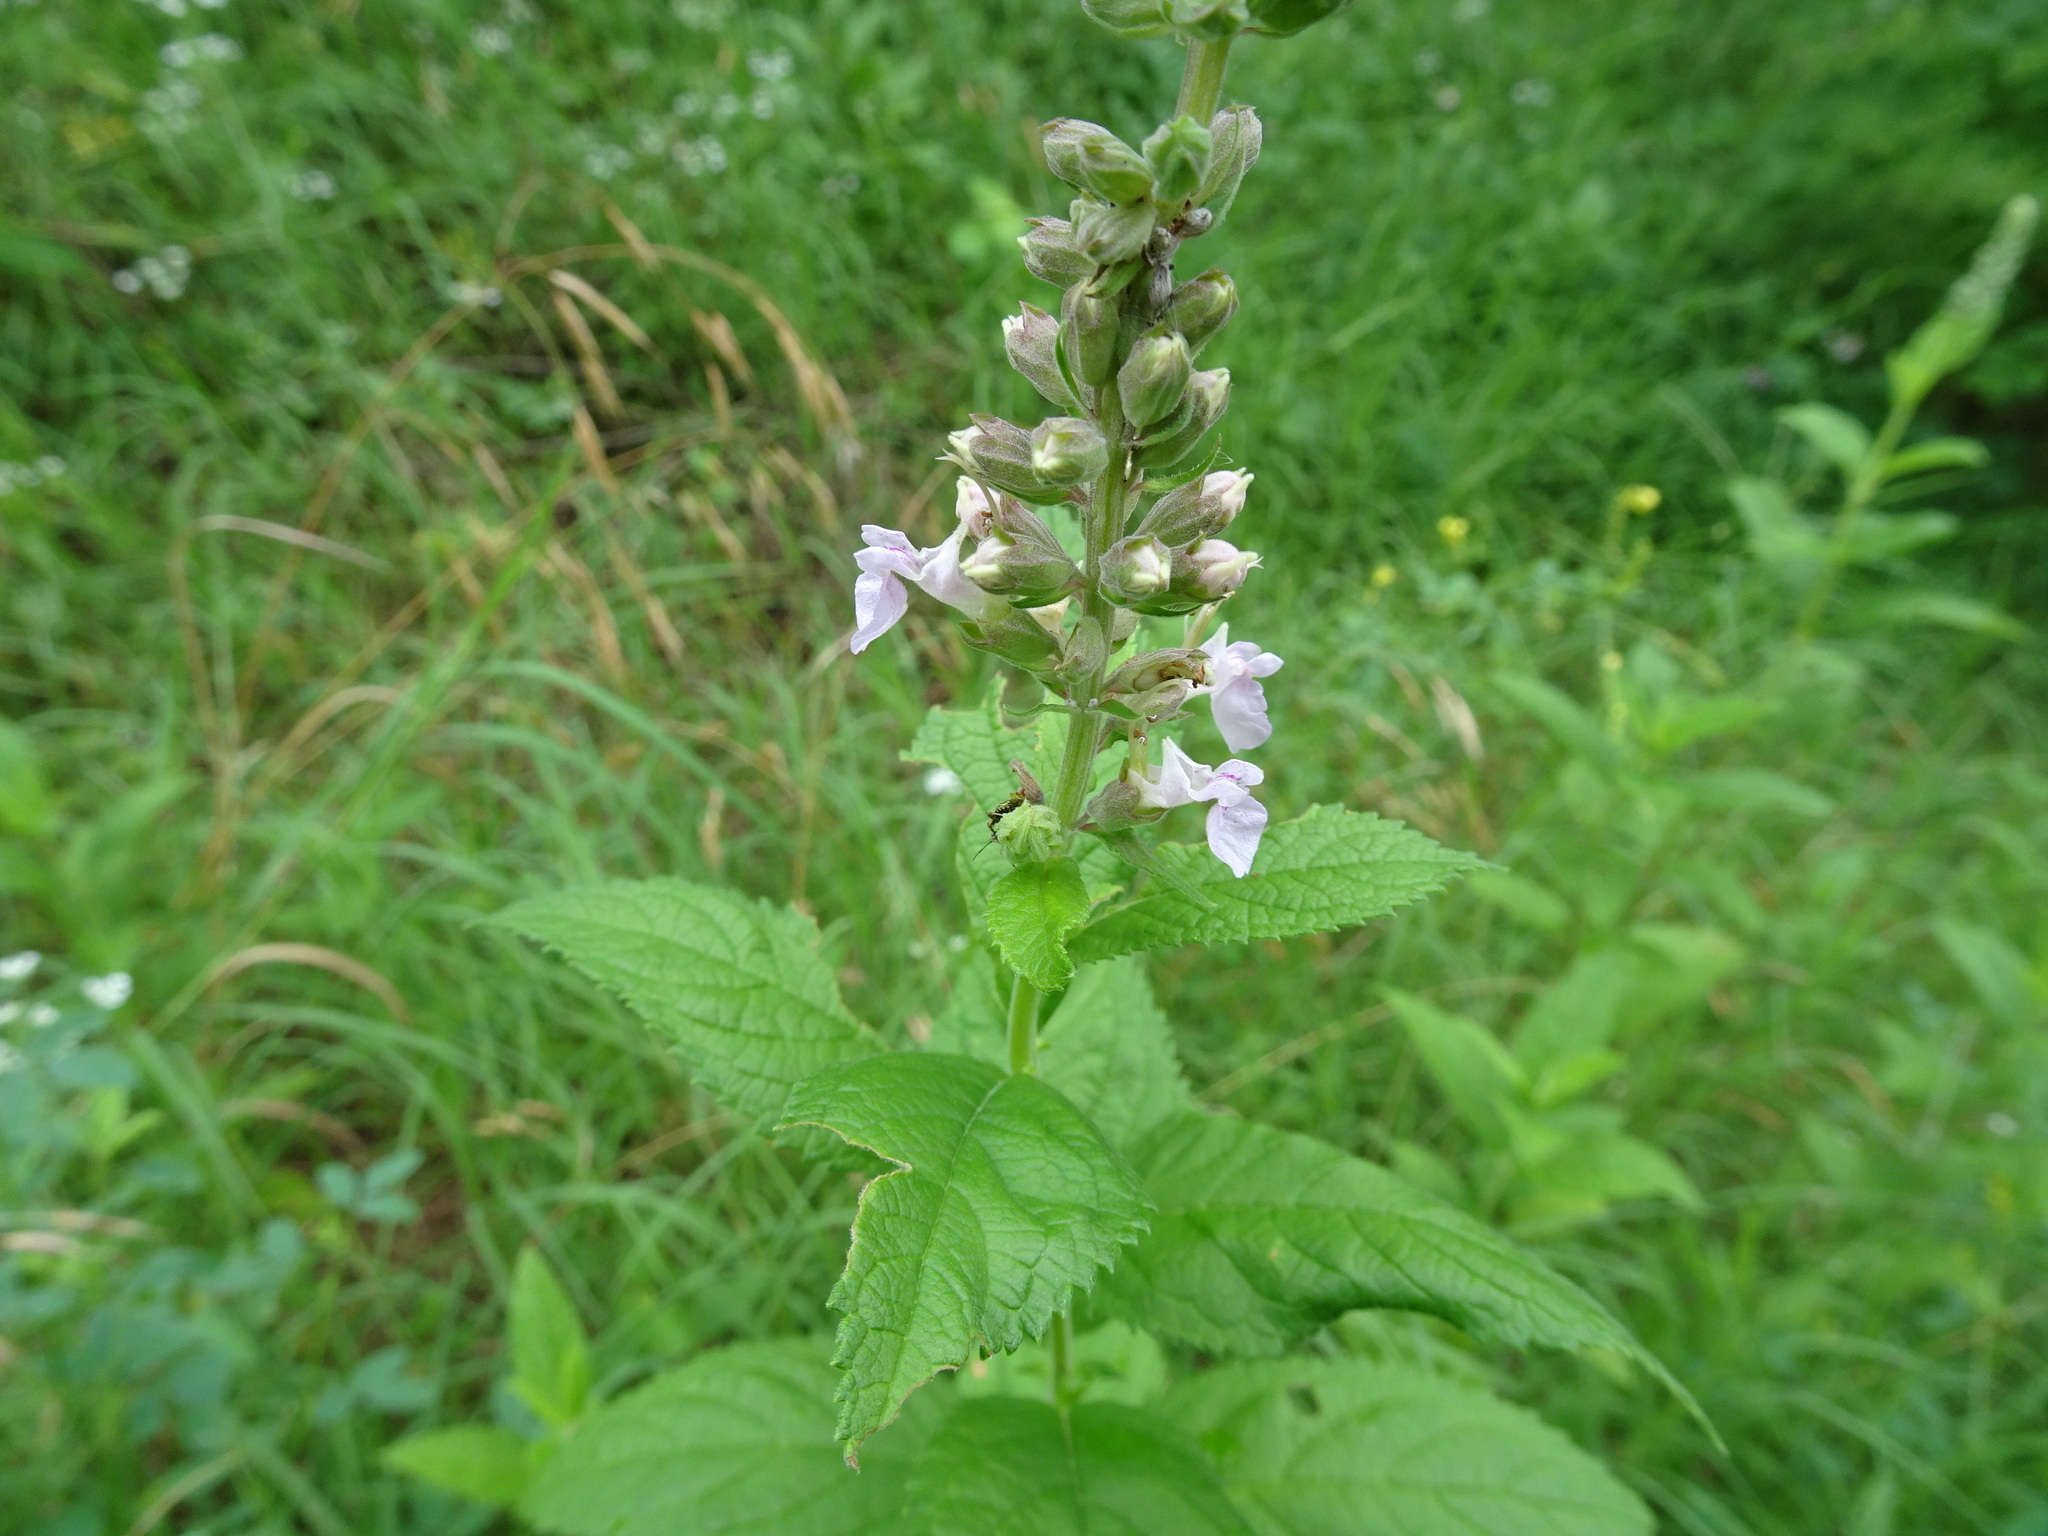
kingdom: Plantae
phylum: Tracheophyta
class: Magnoliopsida
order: Lamiales
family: Lamiaceae
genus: Teucrium
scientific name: Teucrium canadense
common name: American germander
